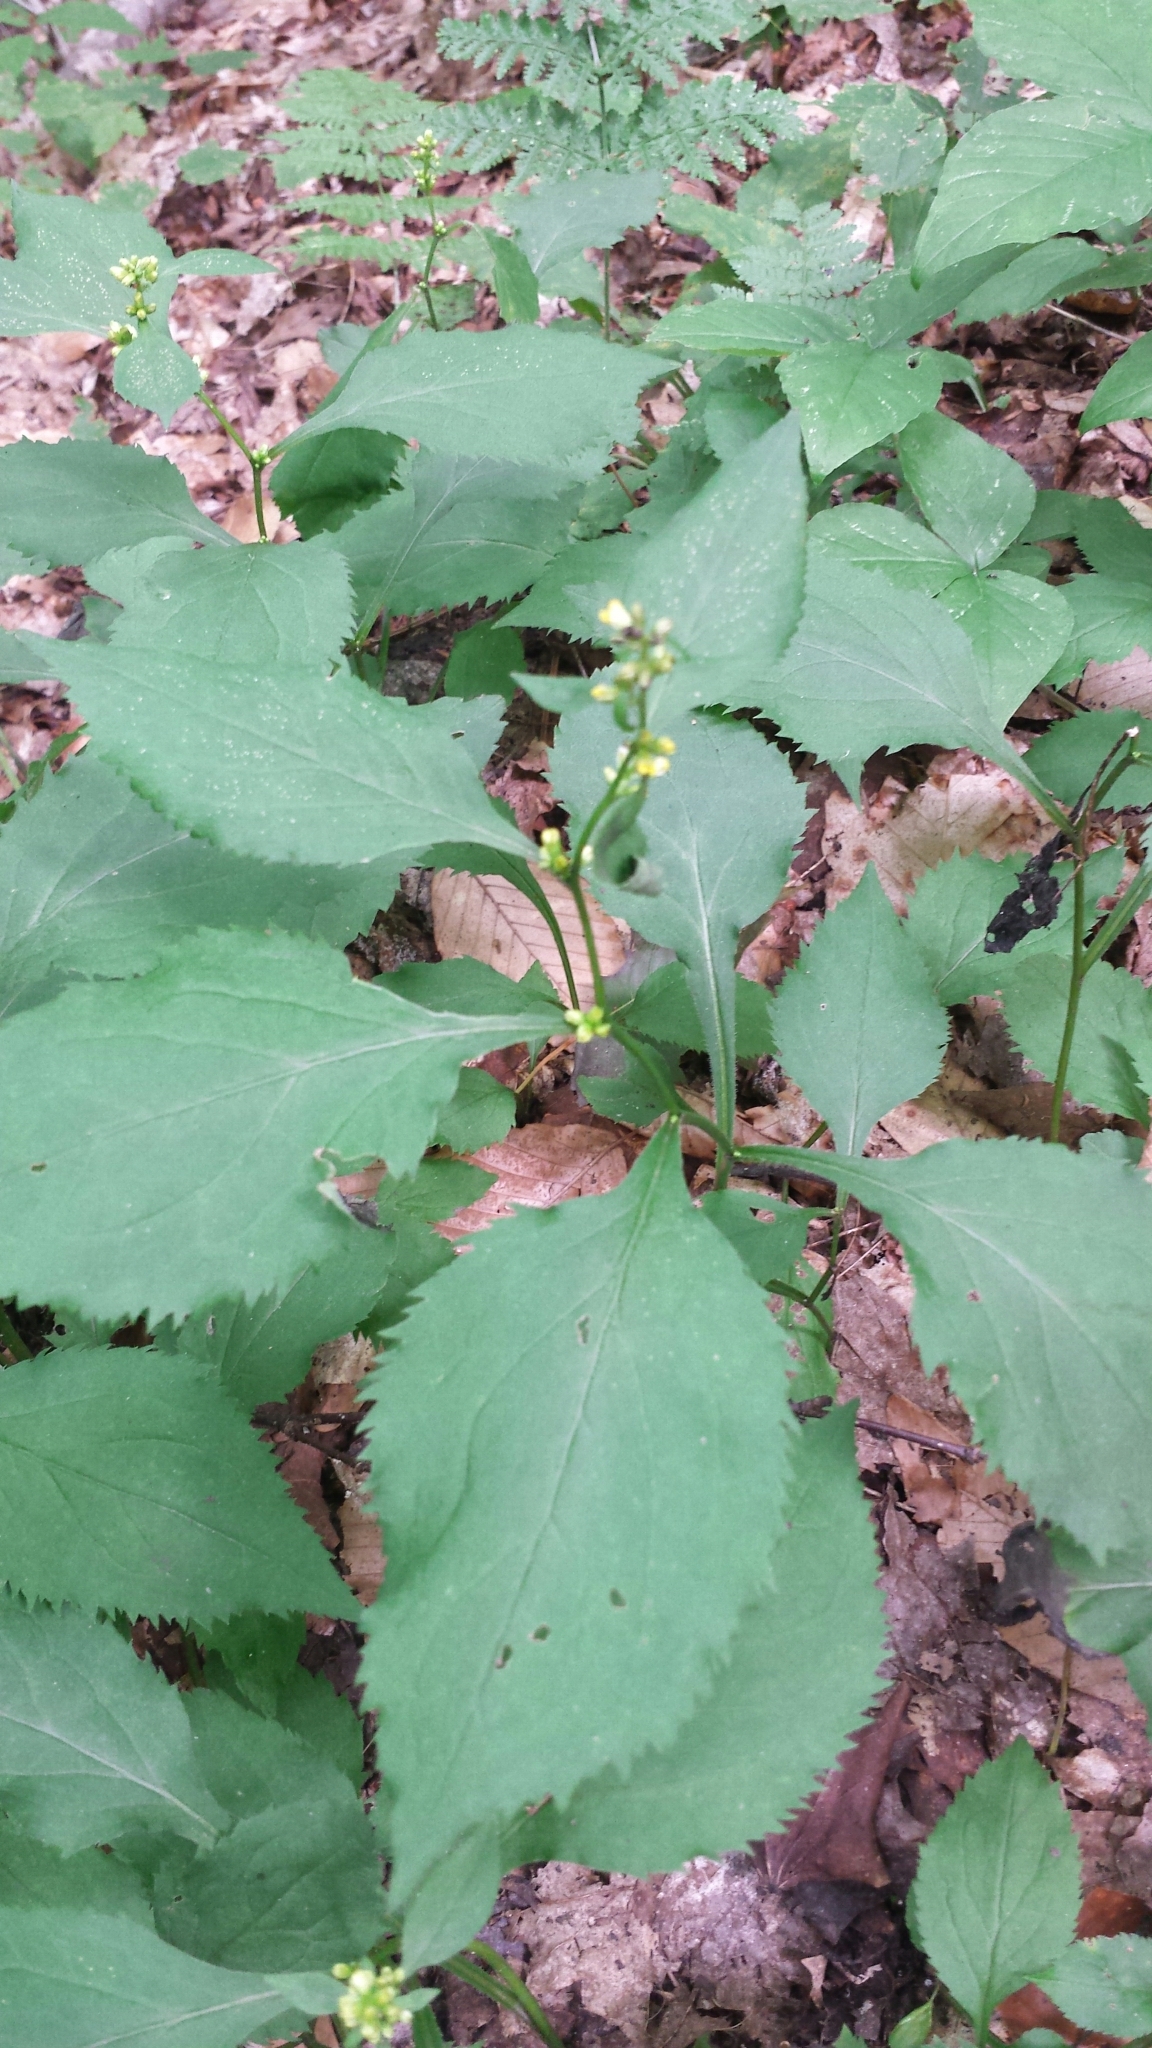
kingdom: Plantae
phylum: Tracheophyta
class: Magnoliopsida
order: Asterales
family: Asteraceae
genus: Solidago
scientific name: Solidago flexicaulis
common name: Zig-zag goldenrod
